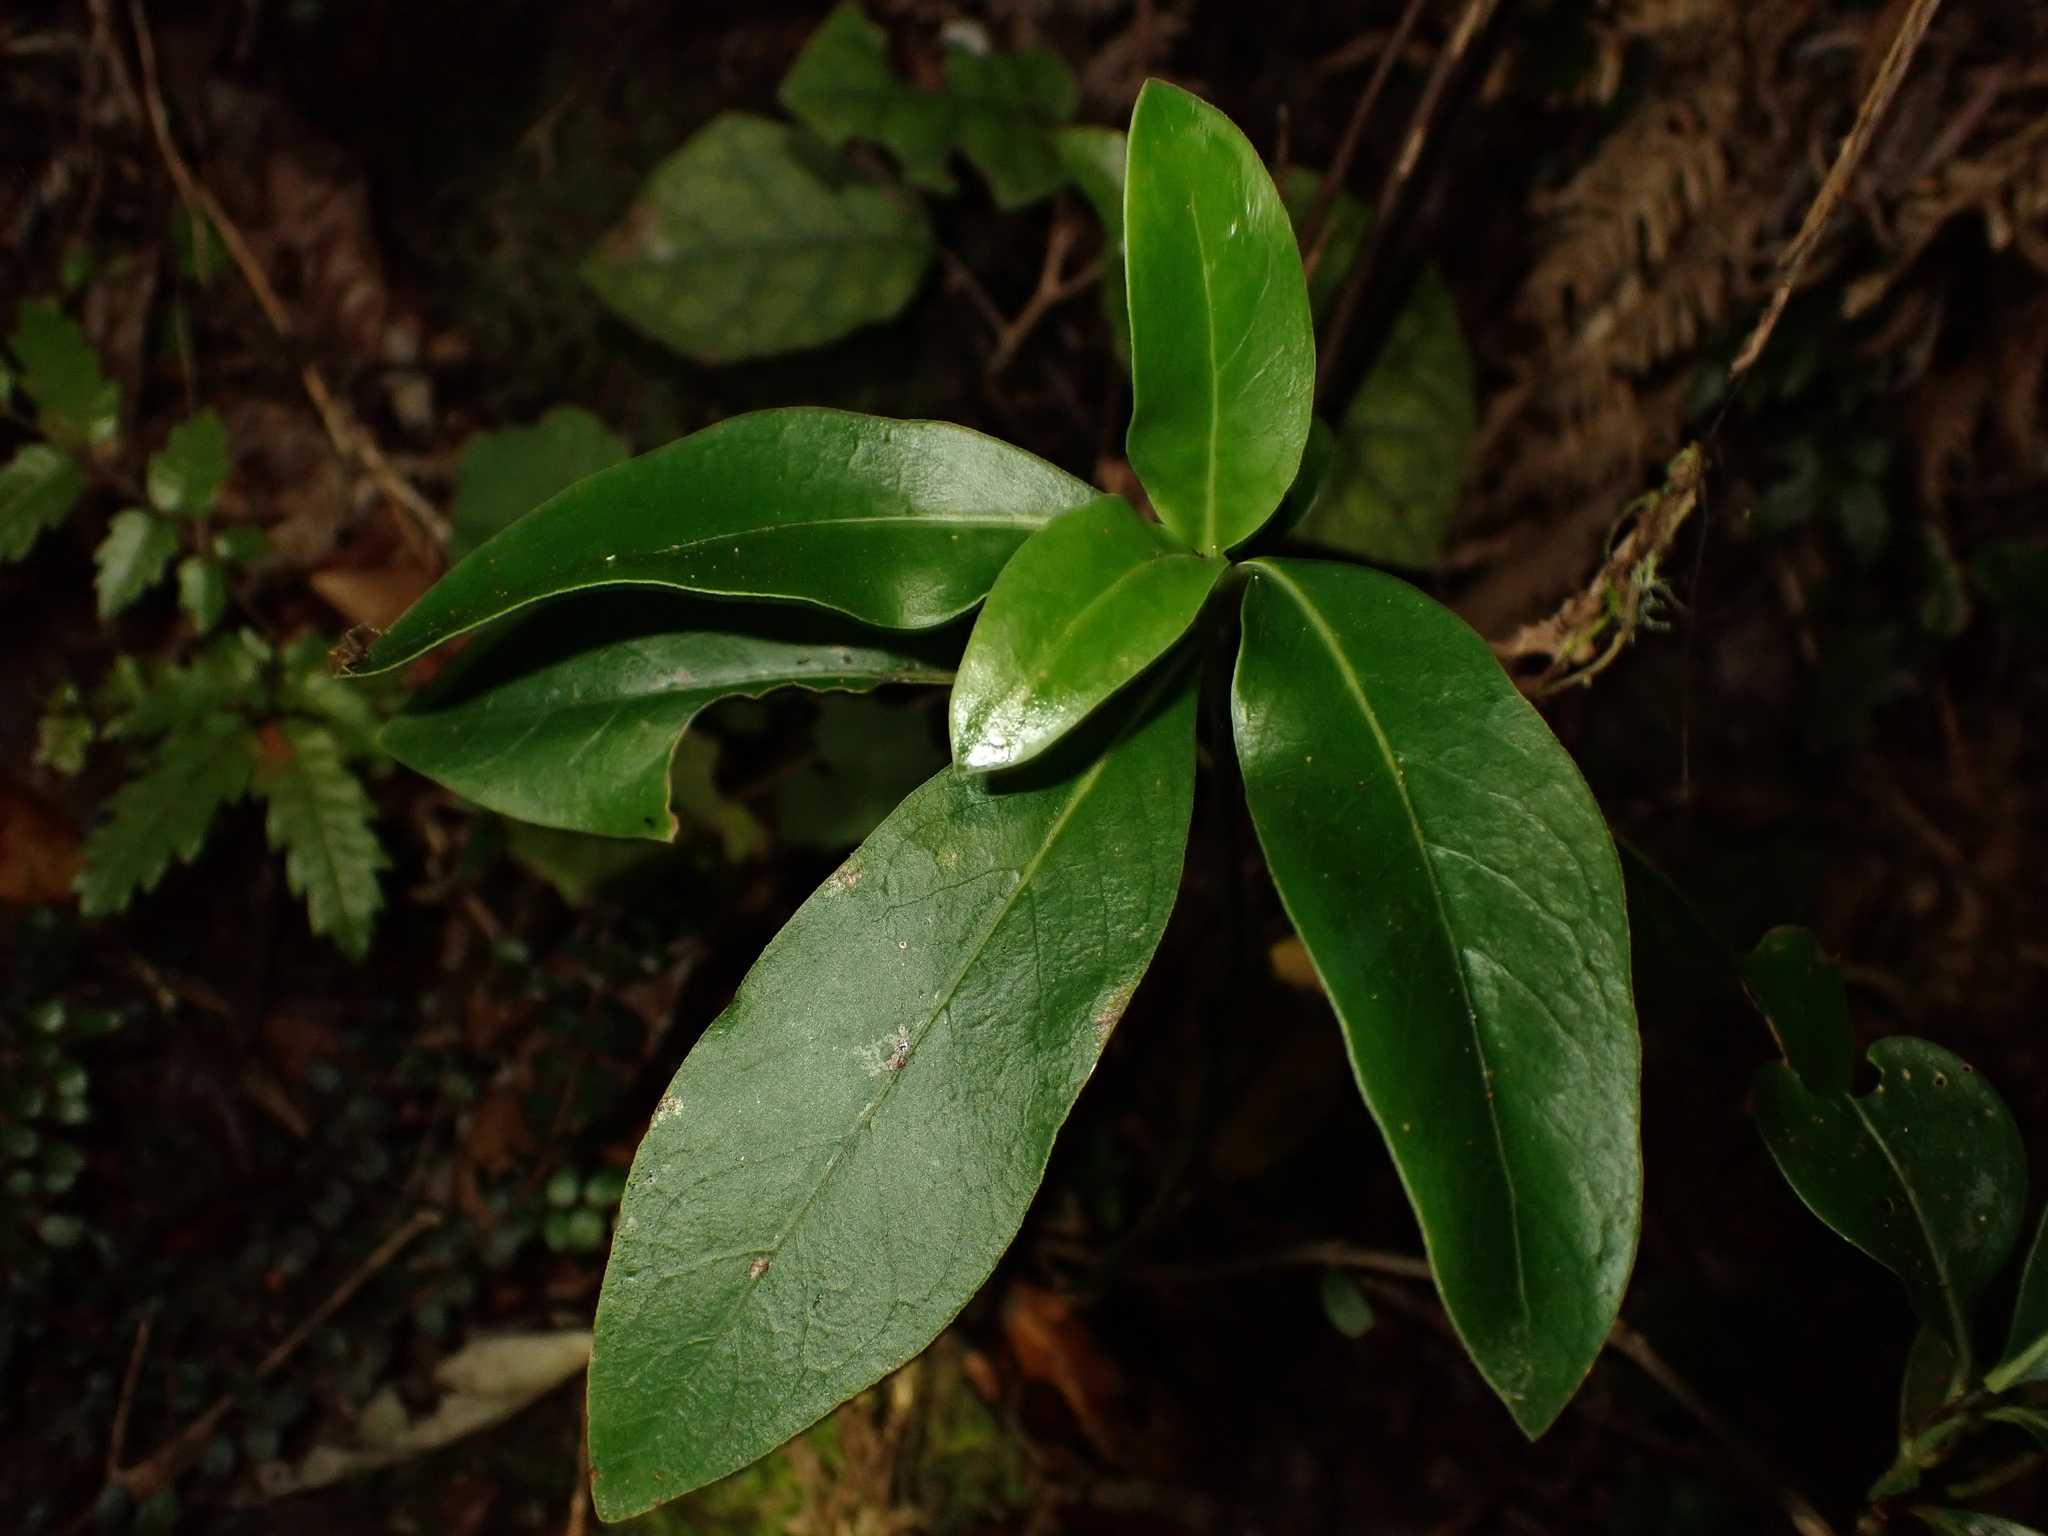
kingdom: Plantae
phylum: Tracheophyta
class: Magnoliopsida
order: Gentianales
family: Rubiaceae
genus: Coprosma
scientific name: Coprosma robusta
